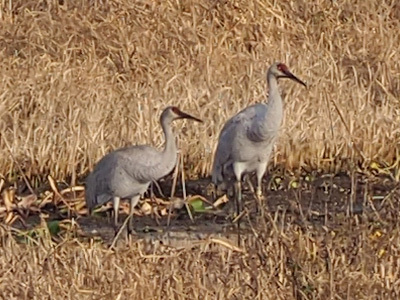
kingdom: Animalia
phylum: Chordata
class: Aves
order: Gruiformes
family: Gruidae
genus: Grus
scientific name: Grus canadensis
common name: Sandhill crane
